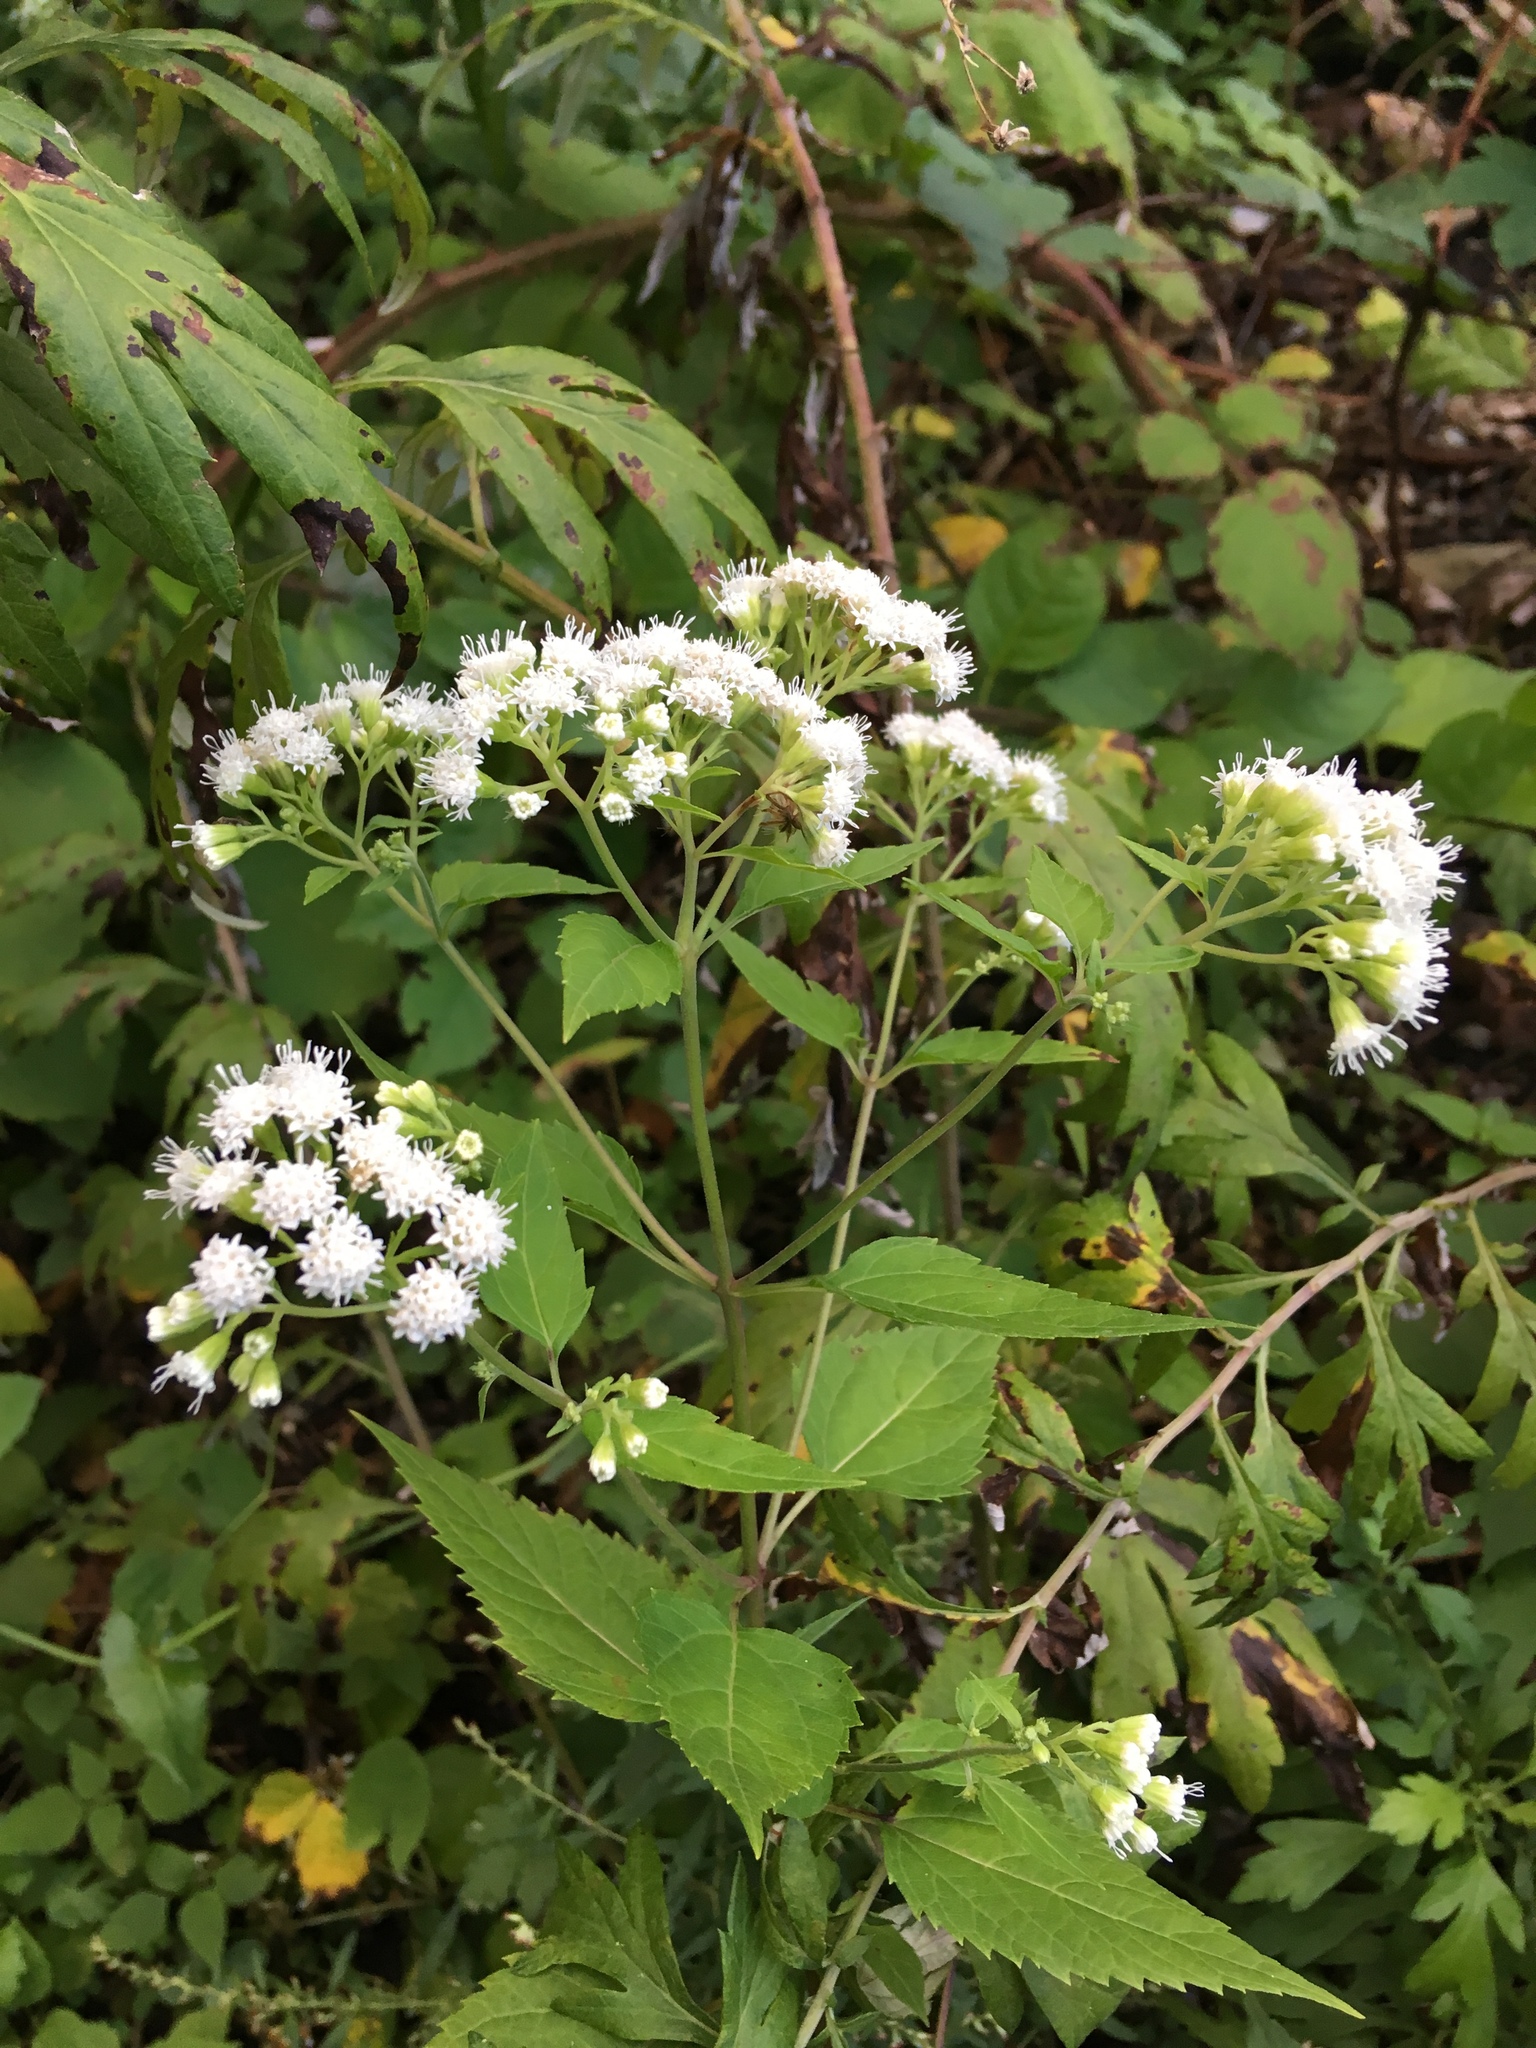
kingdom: Plantae
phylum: Tracheophyta
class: Magnoliopsida
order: Asterales
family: Asteraceae
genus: Ageratina
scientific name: Ageratina altissima
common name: White snakeroot
